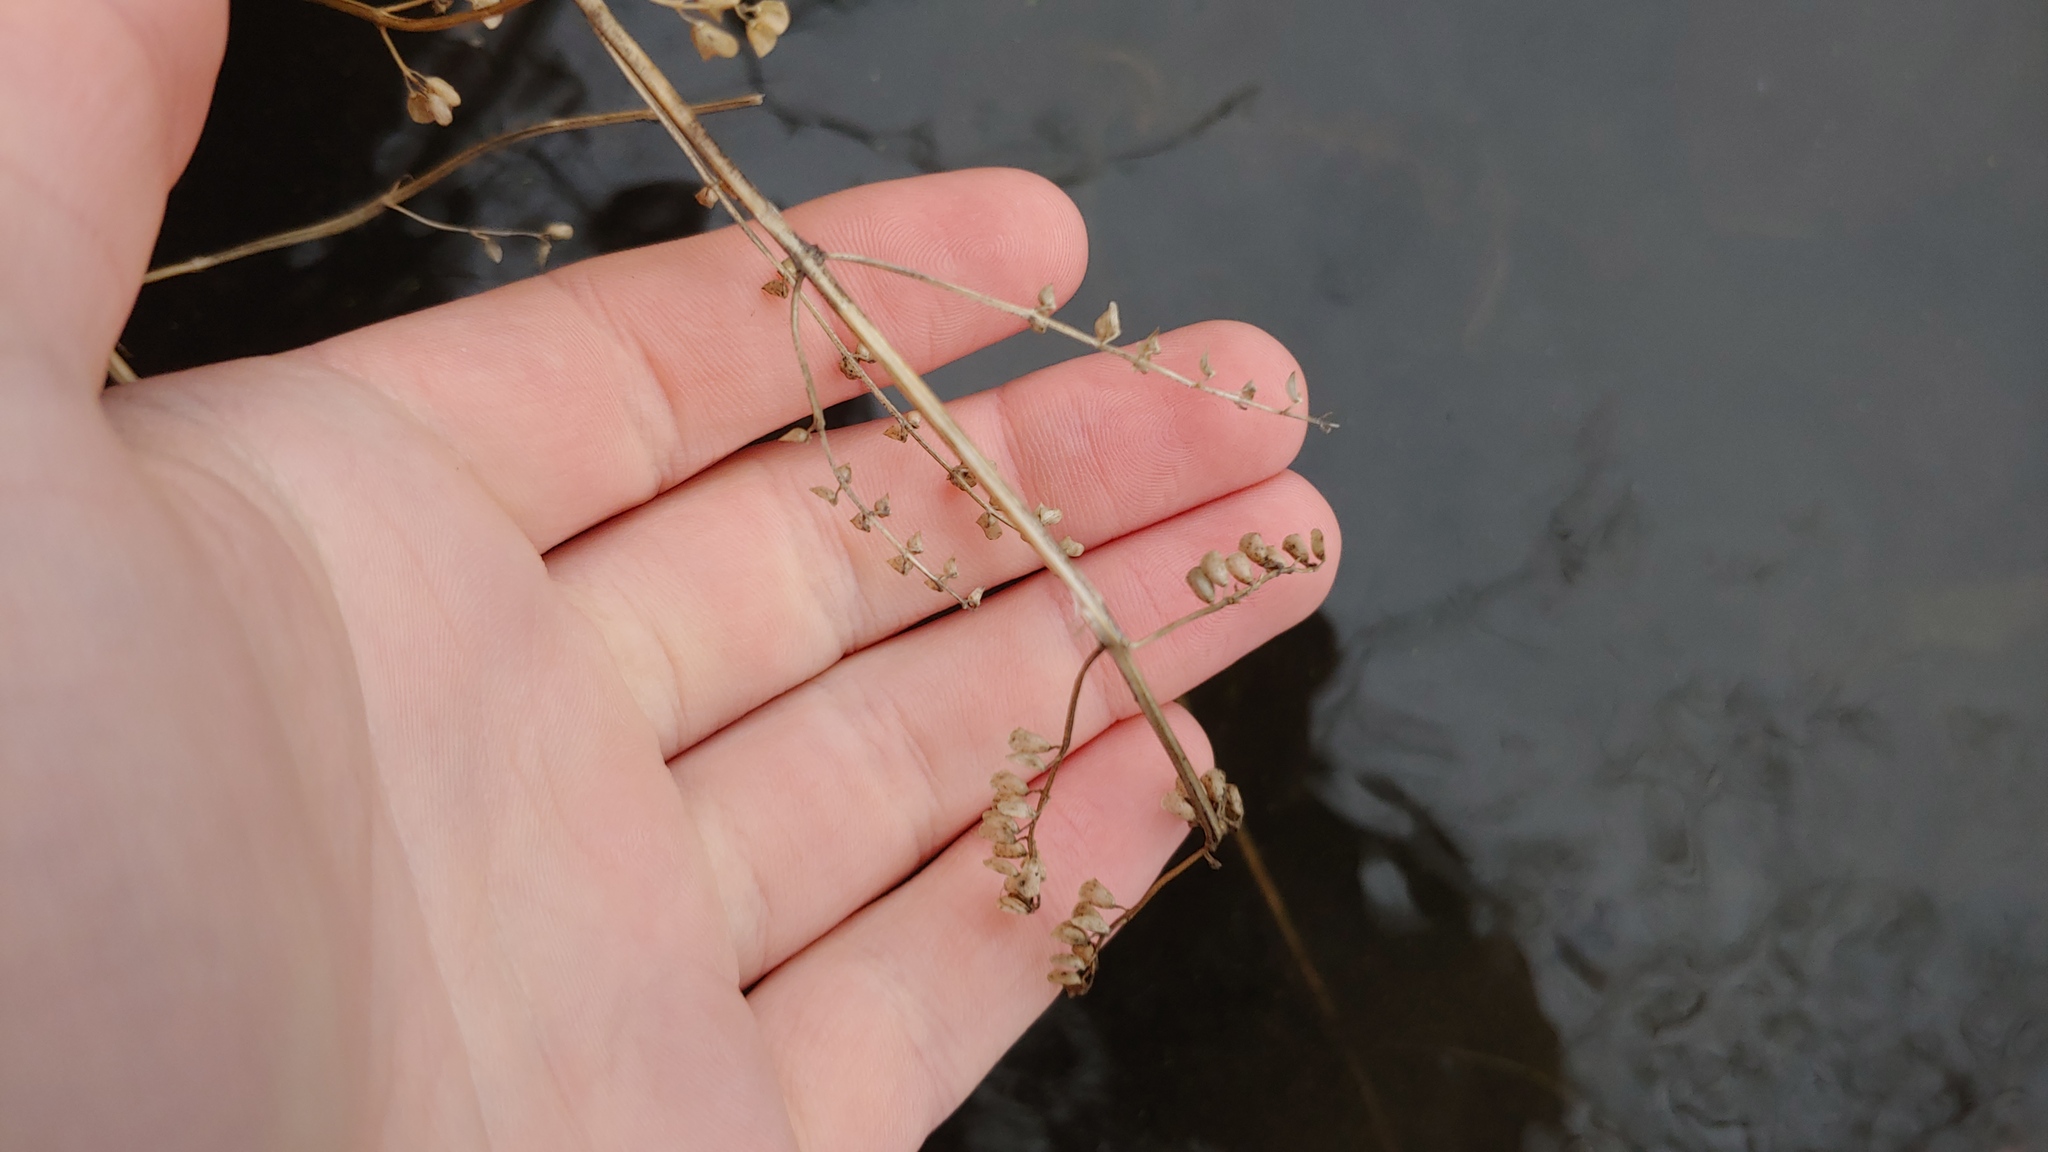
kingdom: Plantae
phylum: Tracheophyta
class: Magnoliopsida
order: Lamiales
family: Lamiaceae
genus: Scutellaria
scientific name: Scutellaria lateriflora
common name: Blue skullcap
